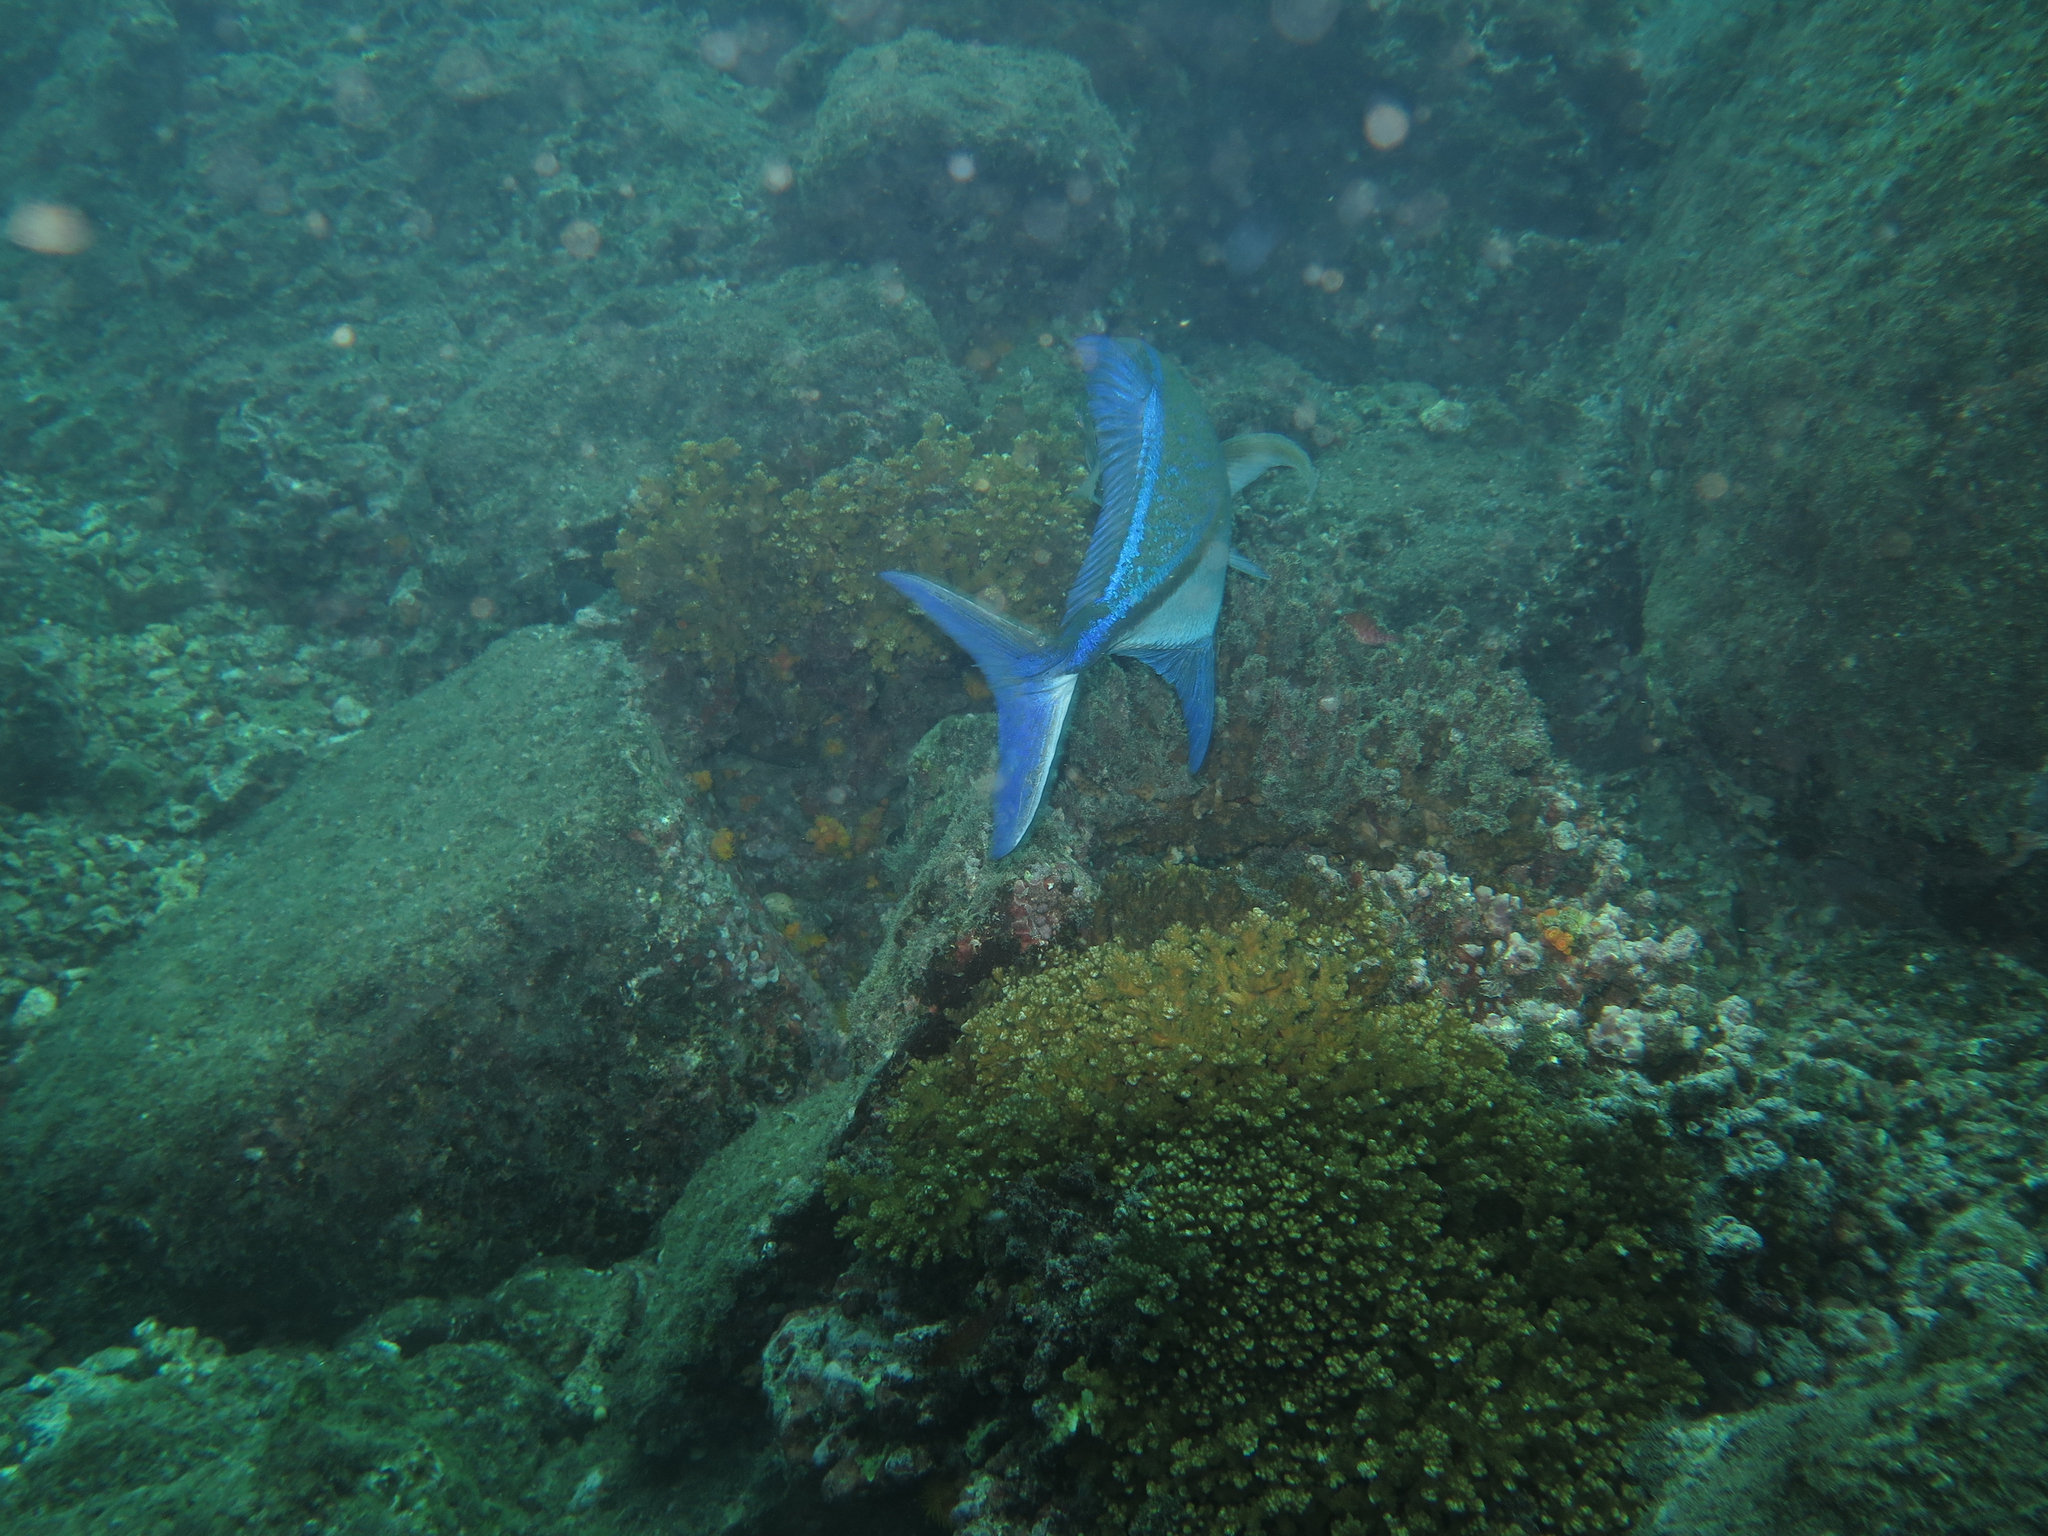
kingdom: Animalia
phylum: Chordata
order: Perciformes
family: Carangidae
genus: Caranx
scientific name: Caranx melampygus
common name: Bluefin trevally
